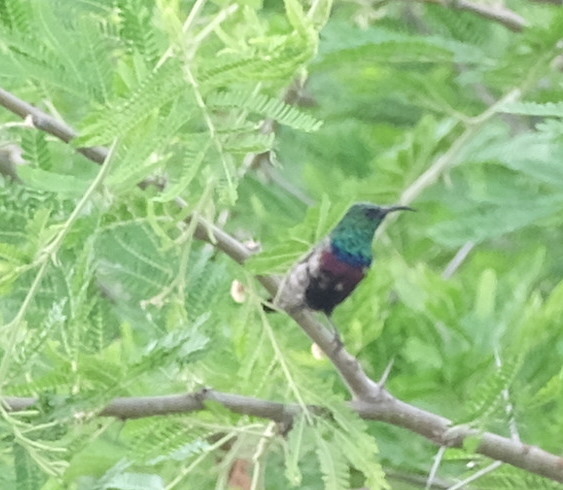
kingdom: Animalia
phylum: Chordata
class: Aves
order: Passeriformes
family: Nectariniidae
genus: Cinnyris
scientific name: Cinnyris mariquensis
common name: Marico sunbird
